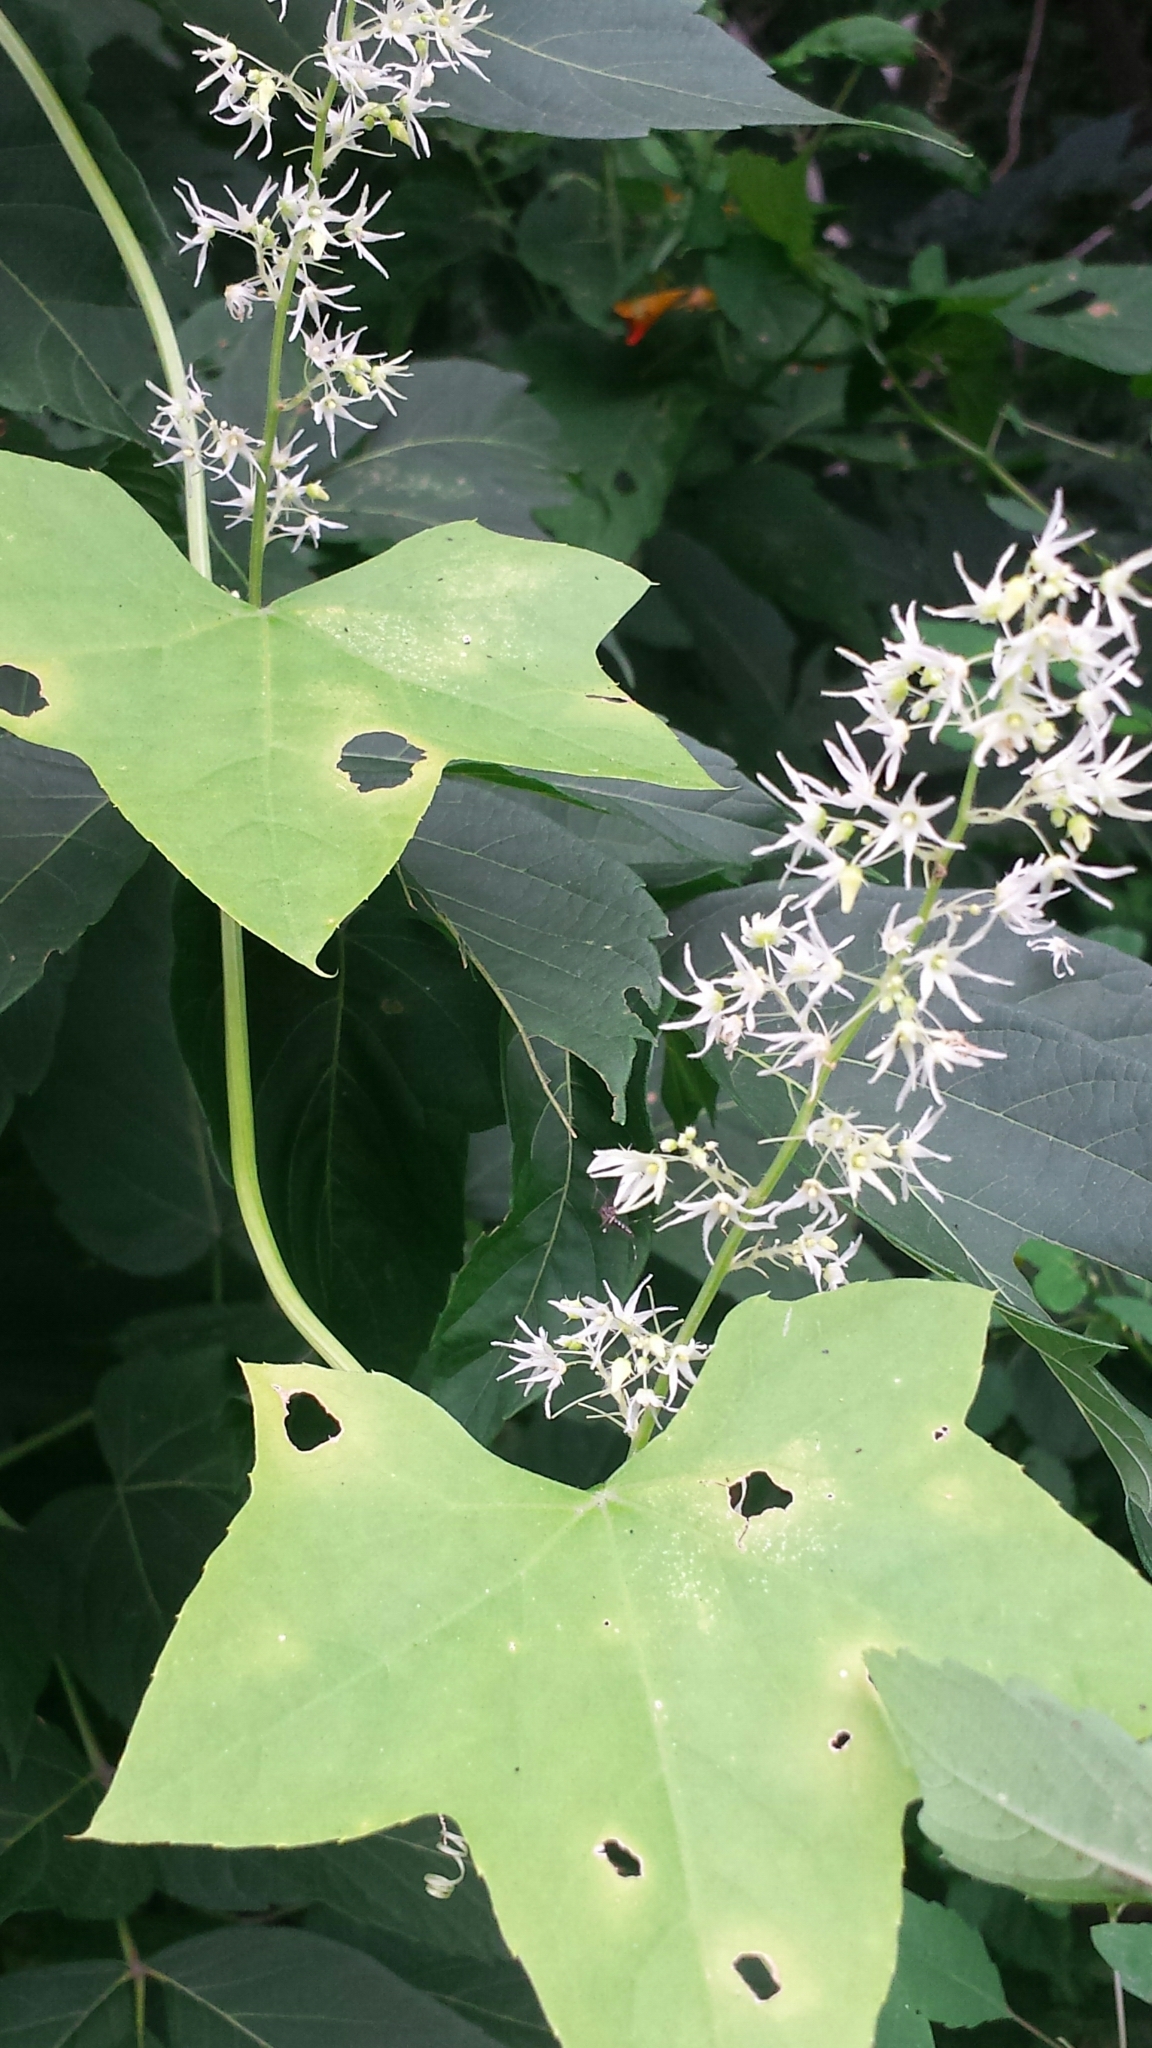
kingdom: Plantae
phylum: Tracheophyta
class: Magnoliopsida
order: Cucurbitales
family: Cucurbitaceae
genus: Echinocystis
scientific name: Echinocystis lobata
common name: Wild cucumber
